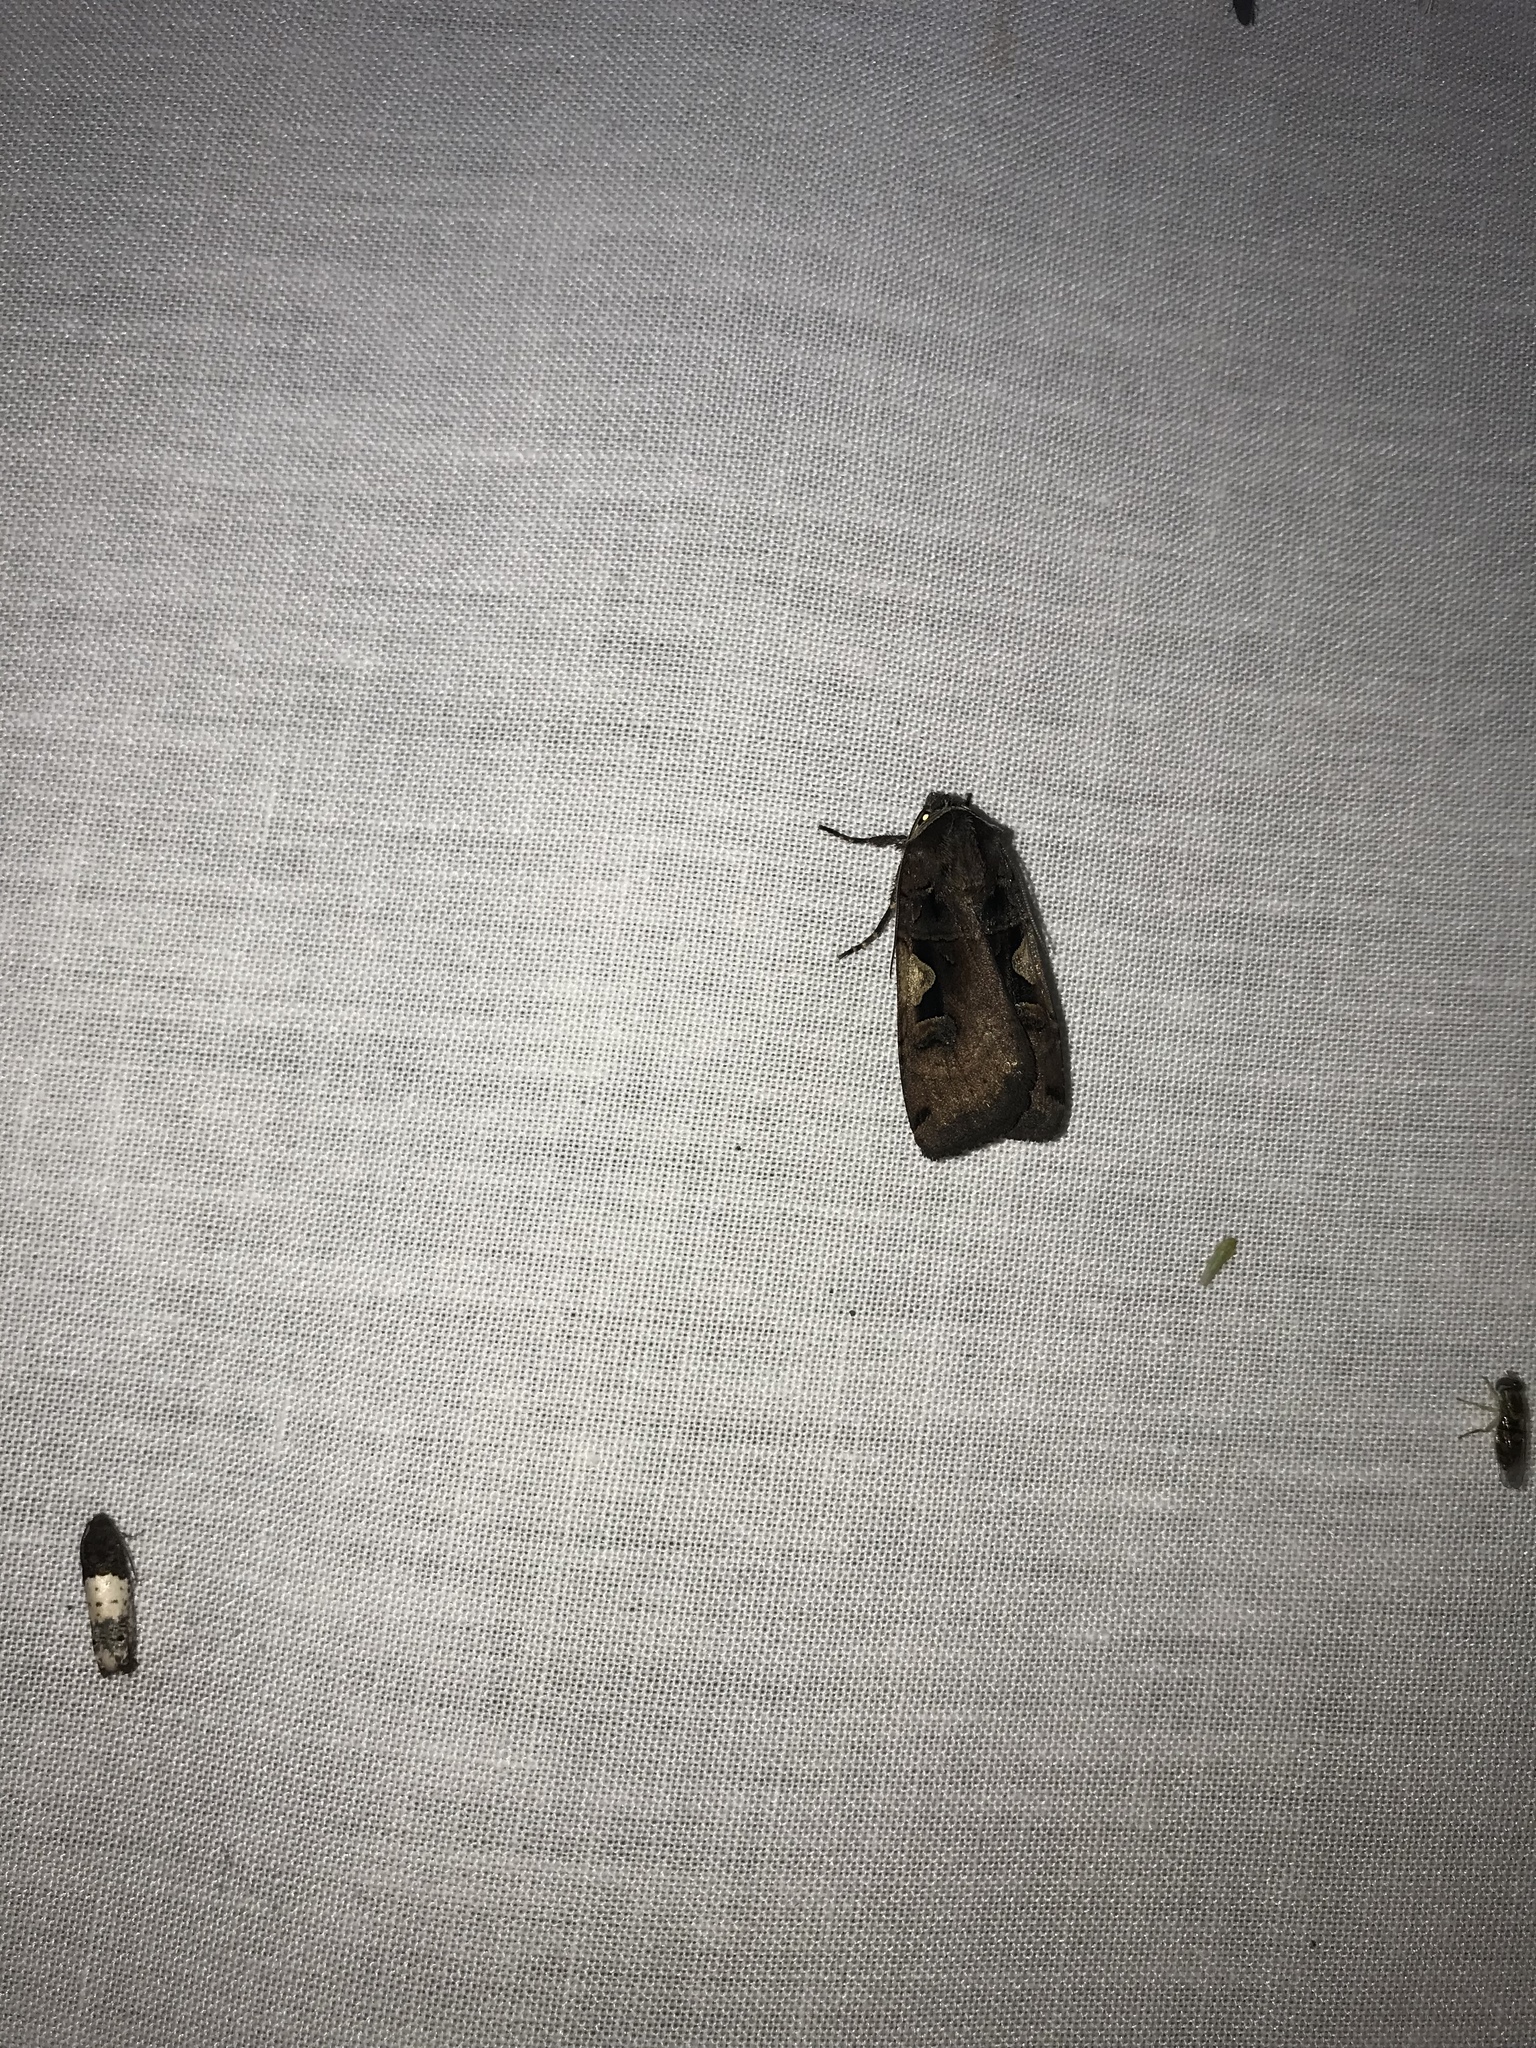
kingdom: Animalia
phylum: Arthropoda
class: Insecta
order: Lepidoptera
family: Noctuidae
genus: Xestia
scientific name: Xestia
